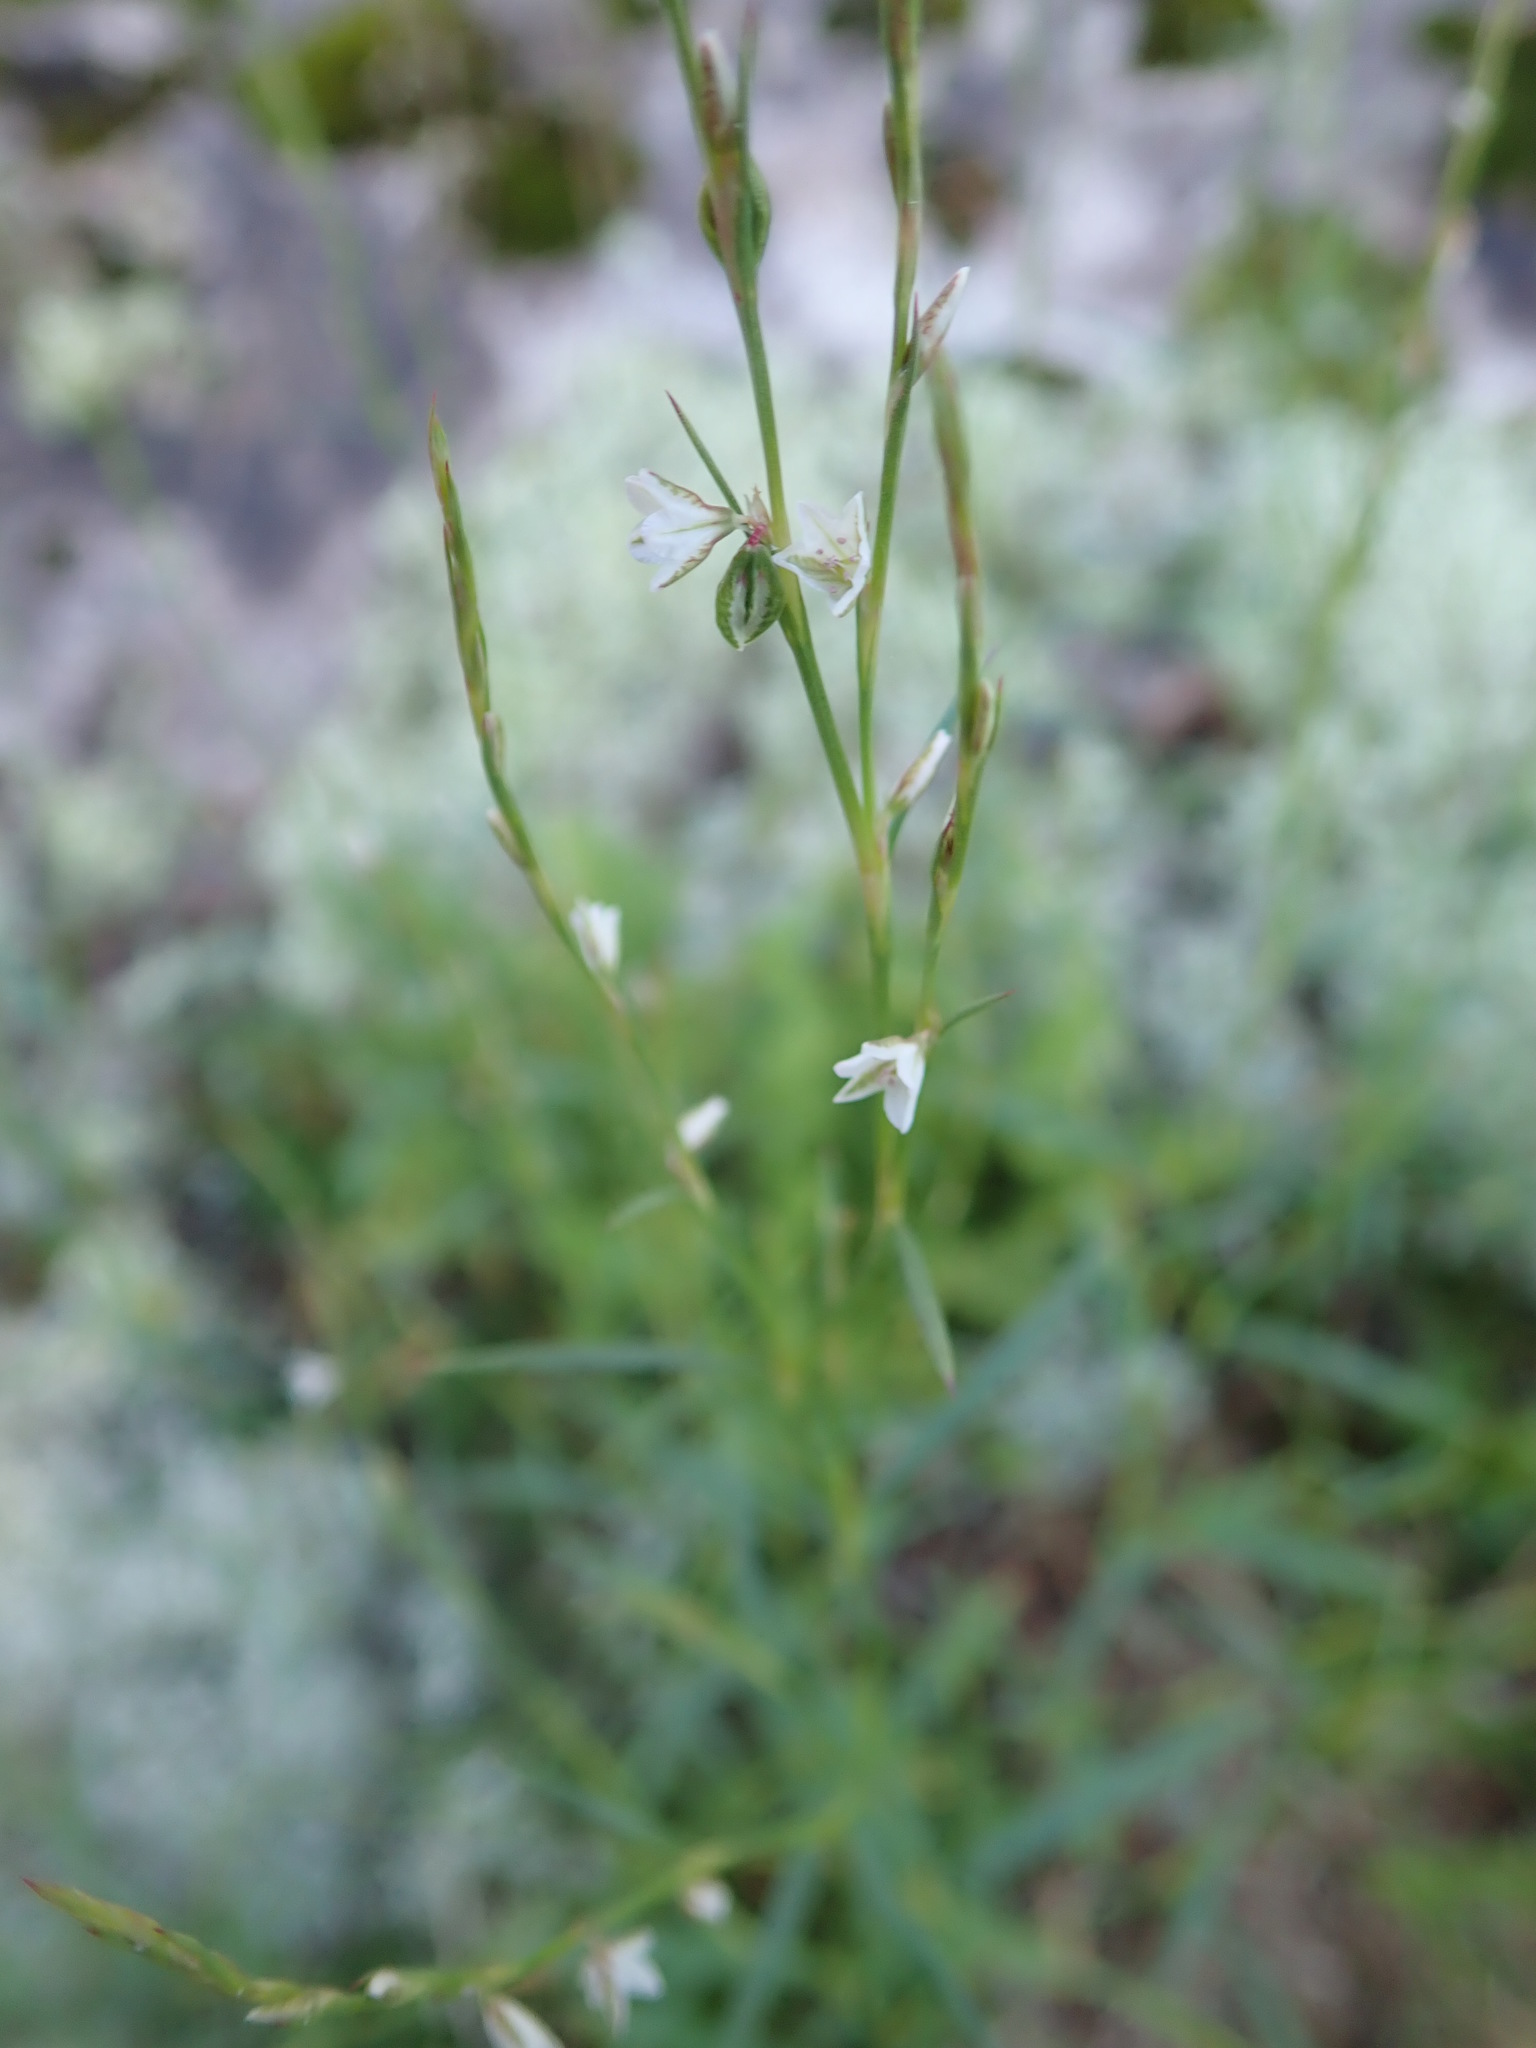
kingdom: Plantae
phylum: Tracheophyta
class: Magnoliopsida
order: Caryophyllales
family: Polygonaceae
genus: Polygonum
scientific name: Polygonum douglasii
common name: Douglas' knotweed
